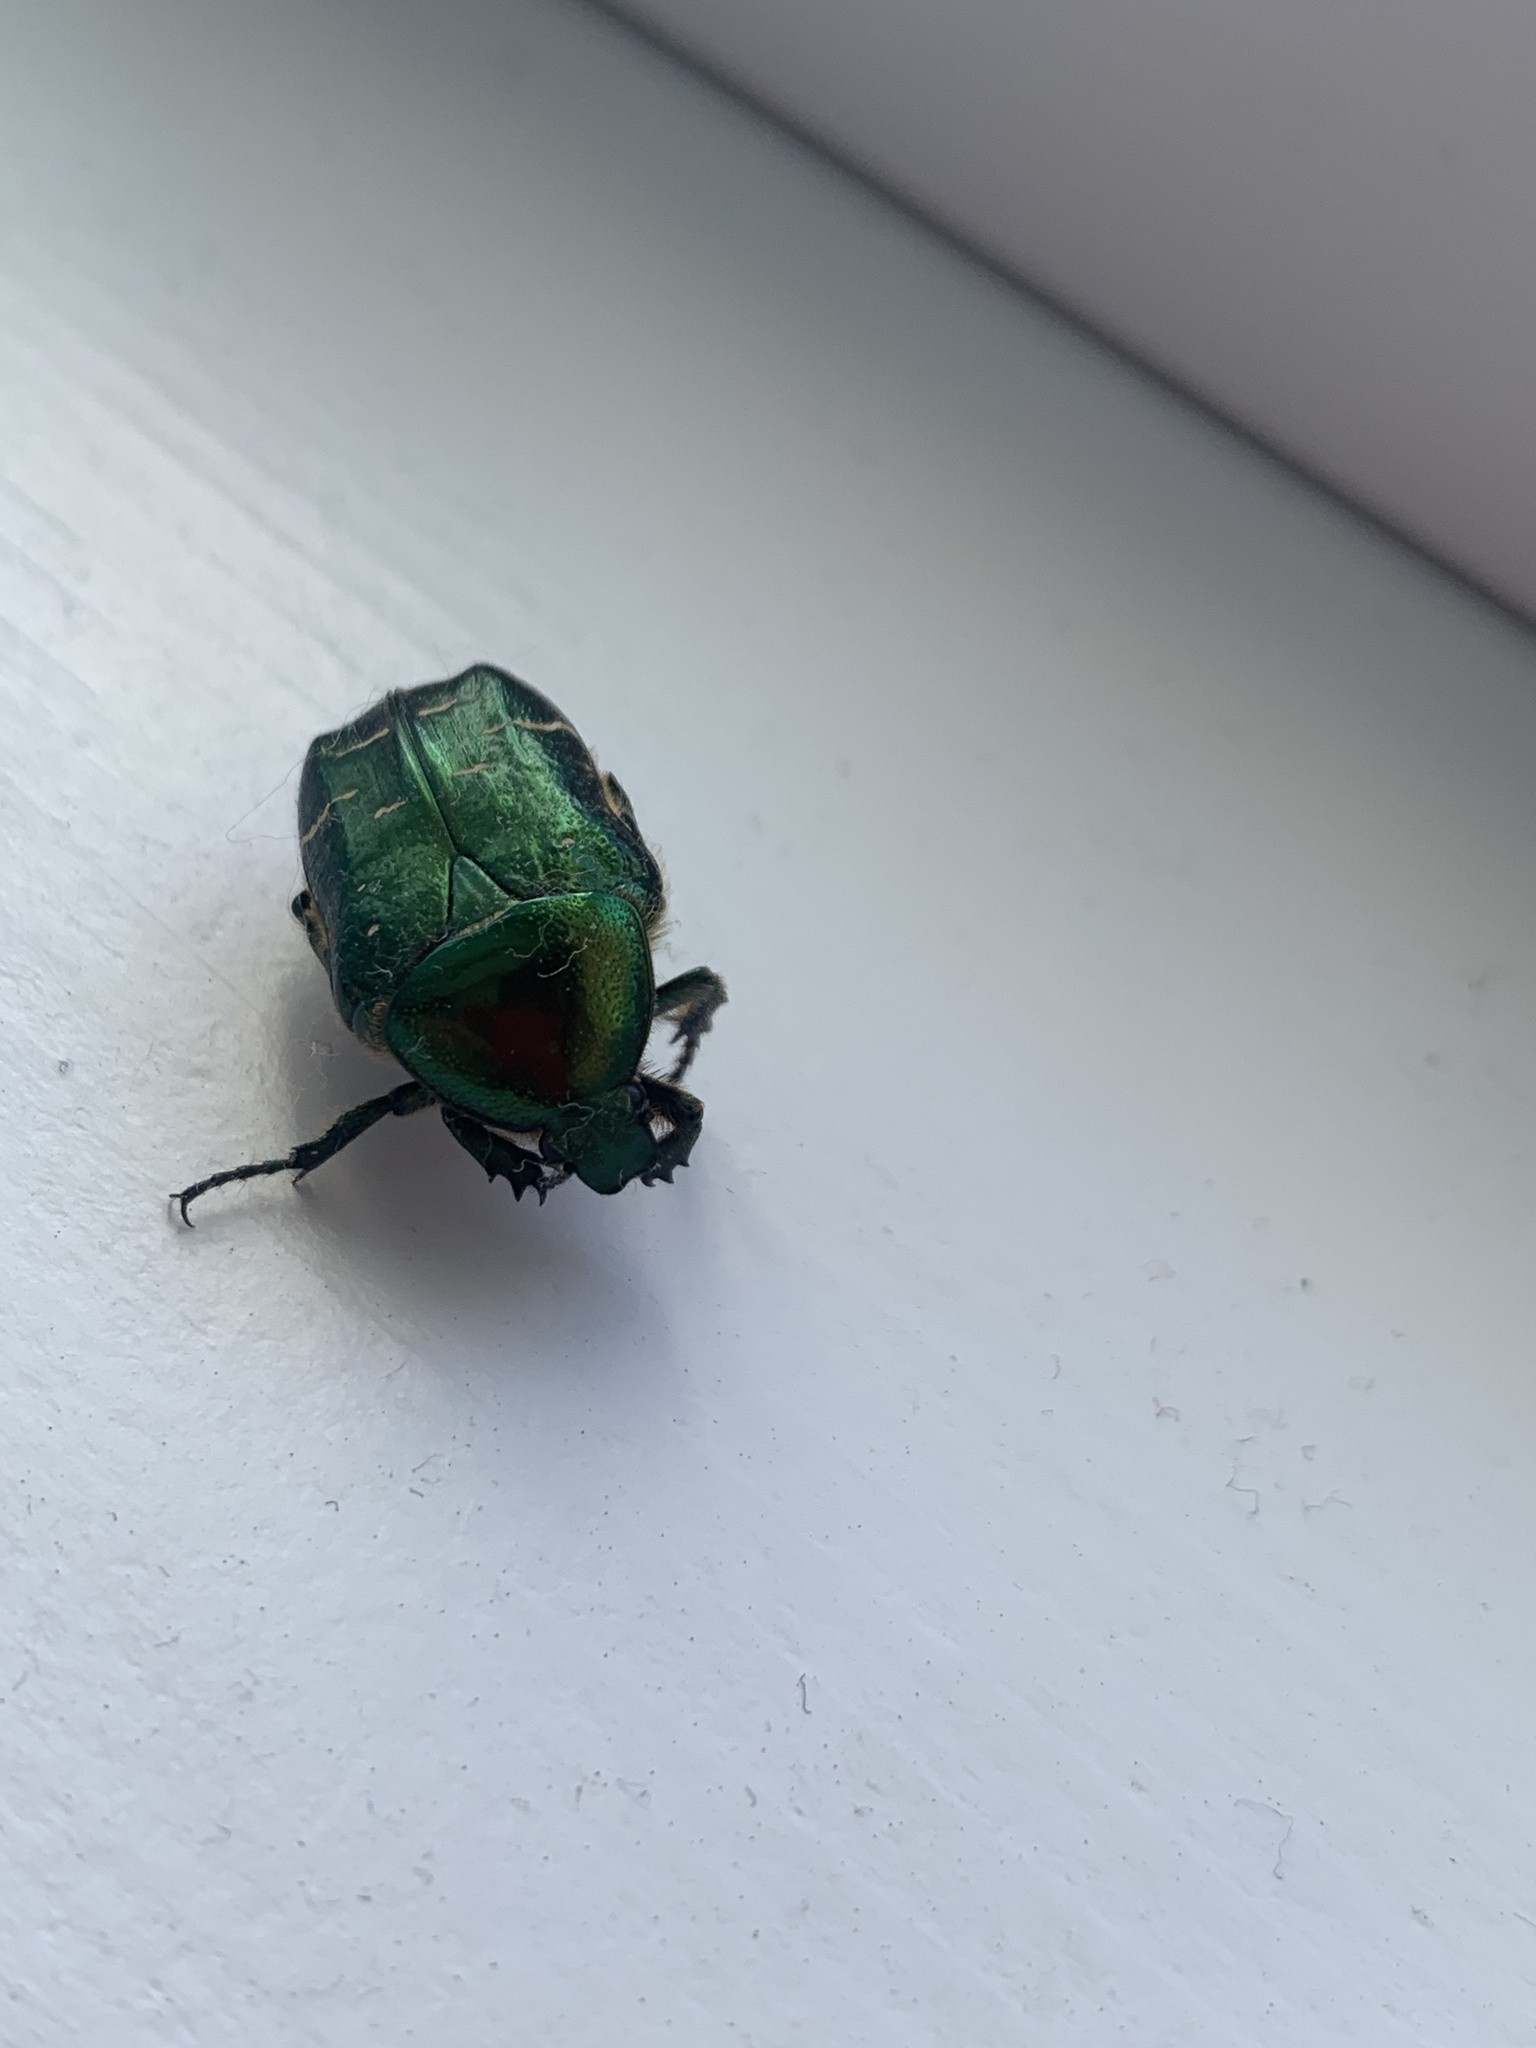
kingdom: Animalia
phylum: Arthropoda
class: Insecta
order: Coleoptera
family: Scarabaeidae
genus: Cetonia
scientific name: Cetonia aurata
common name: Rose chafer
